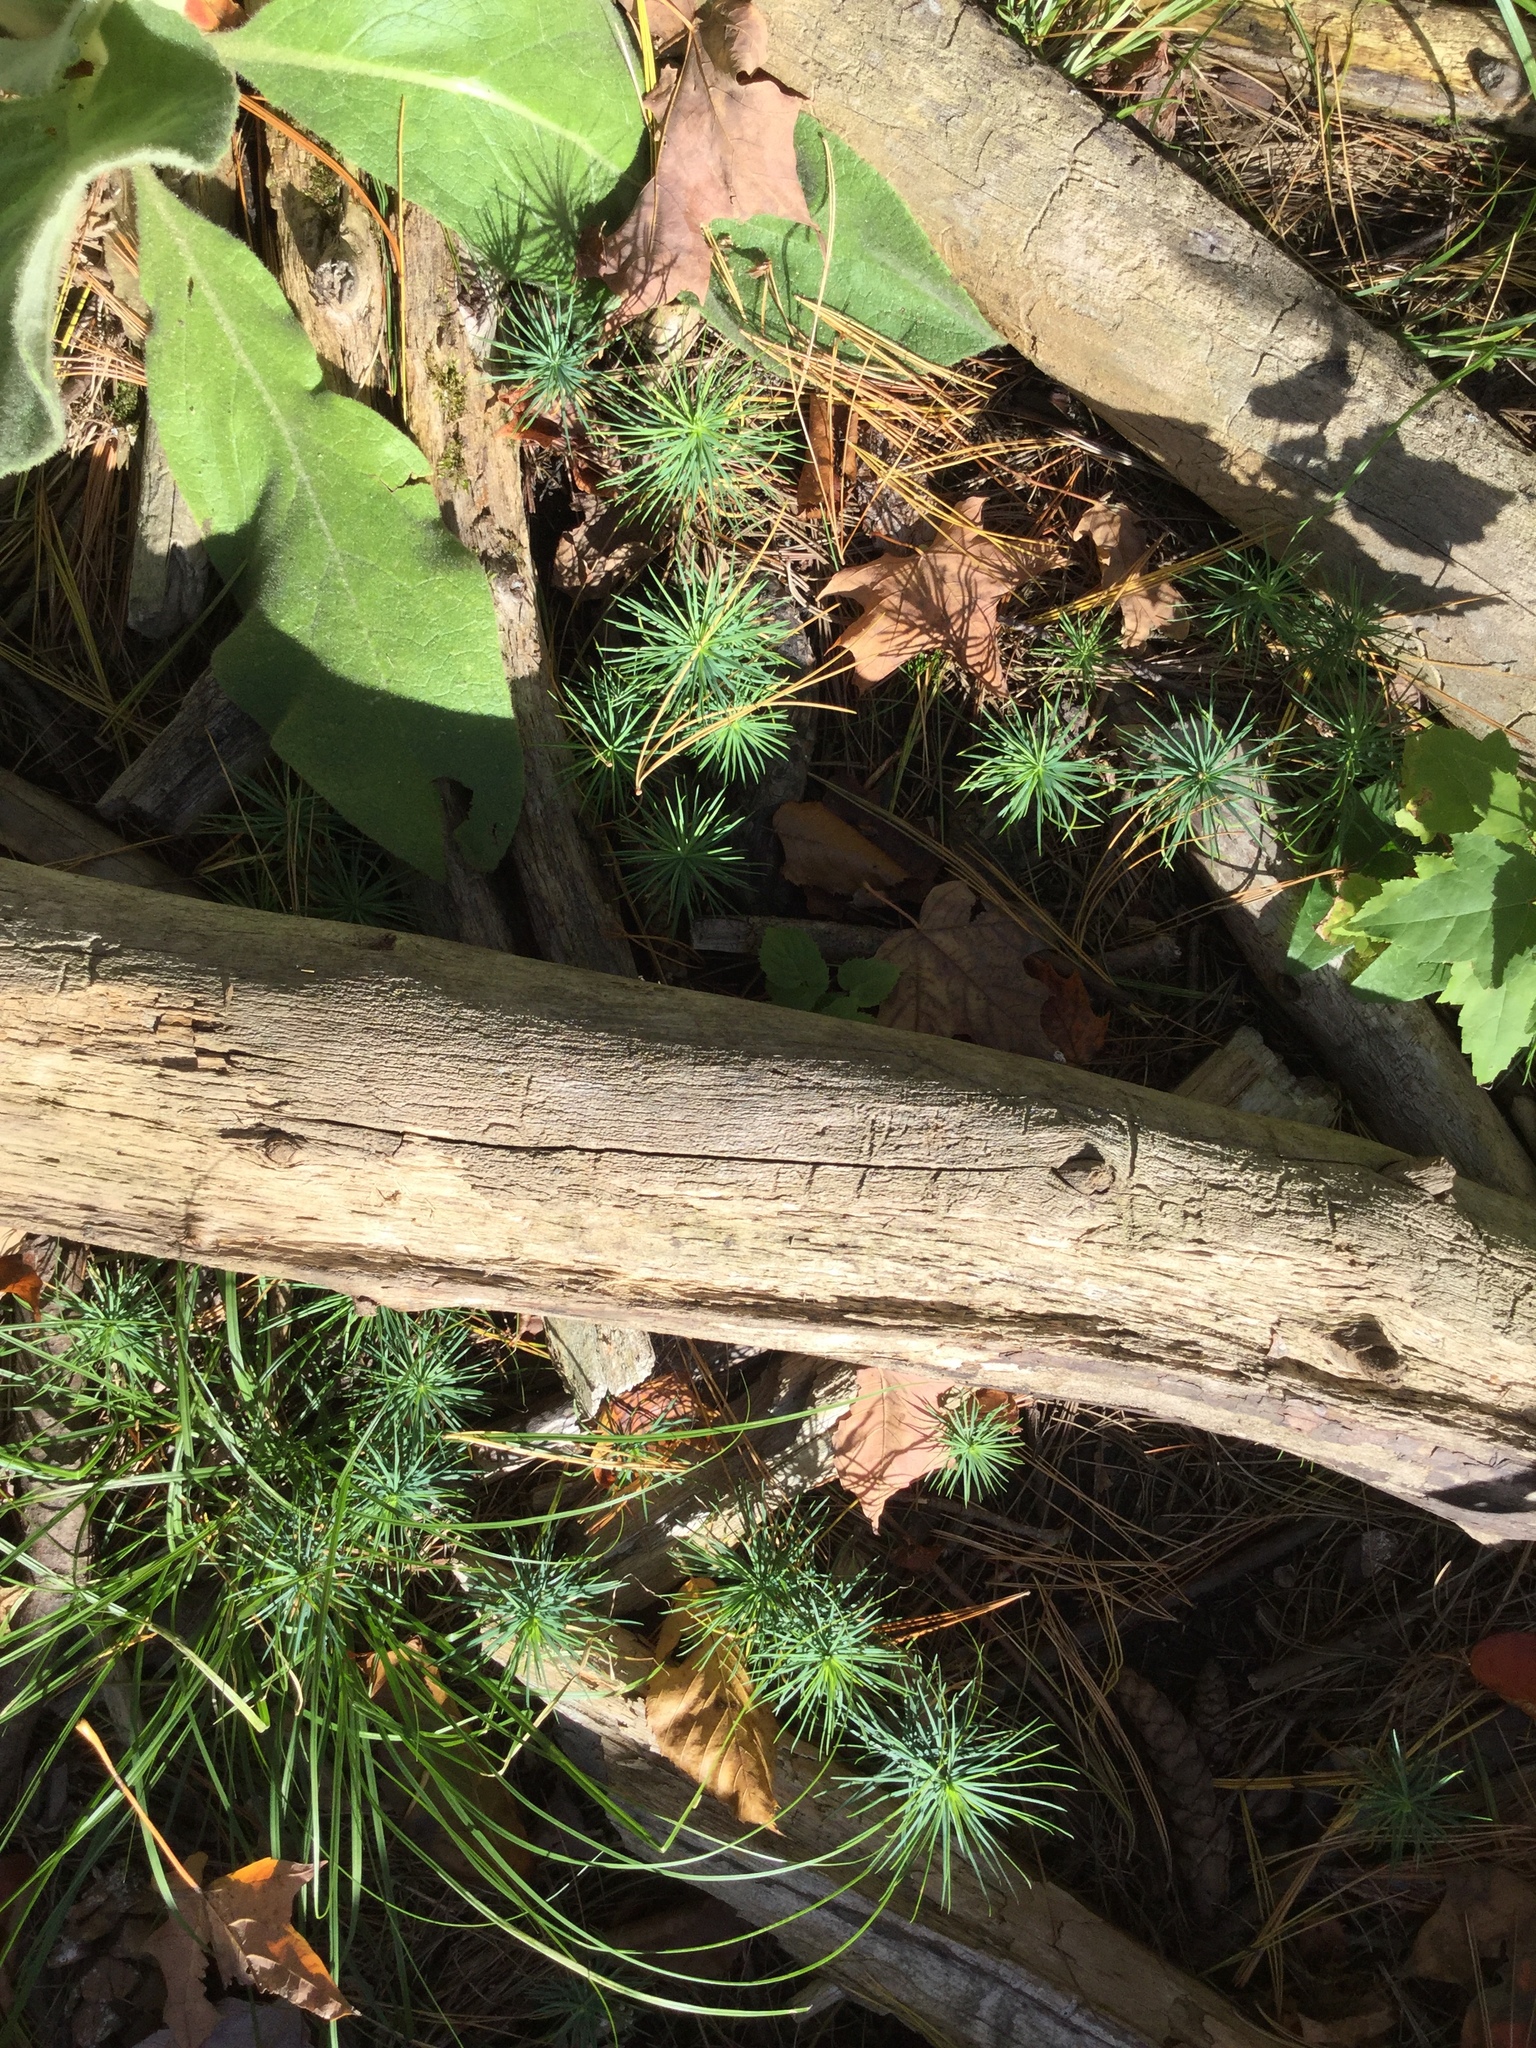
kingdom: Plantae
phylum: Tracheophyta
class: Pinopsida
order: Pinales
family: Pinaceae
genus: Pinus
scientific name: Pinus strobus
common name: Weymouth pine
